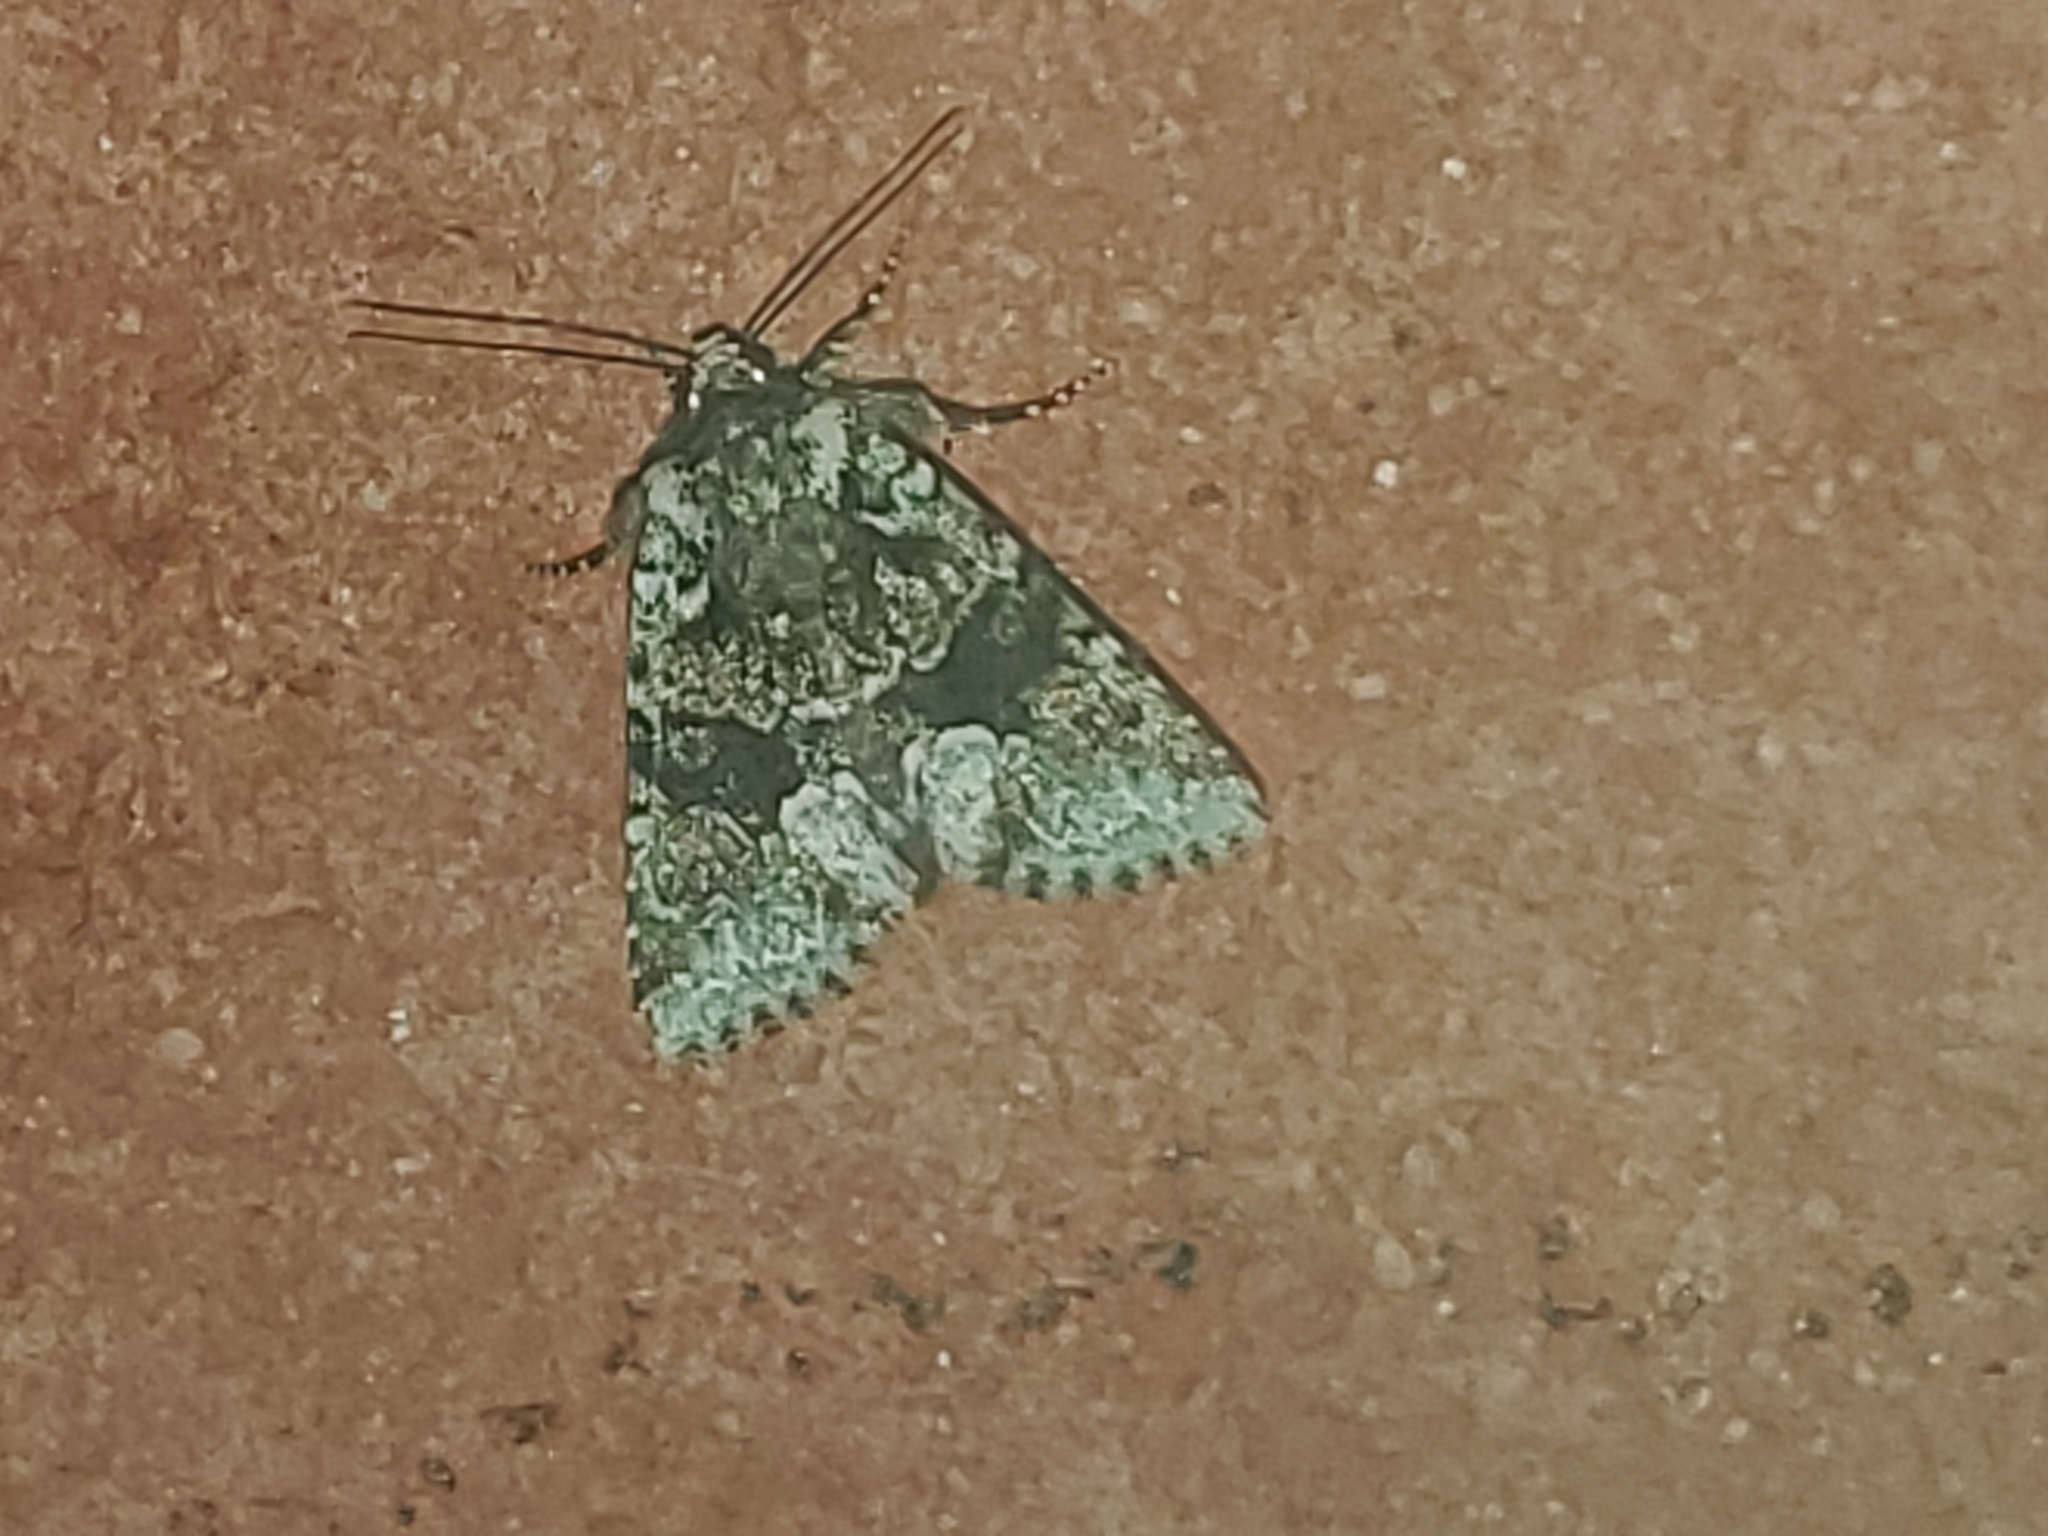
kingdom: Animalia
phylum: Arthropoda
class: Insecta
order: Lepidoptera
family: Noctuidae
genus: Lacinipolia
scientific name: Lacinipolia implicata
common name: Implicit arches
